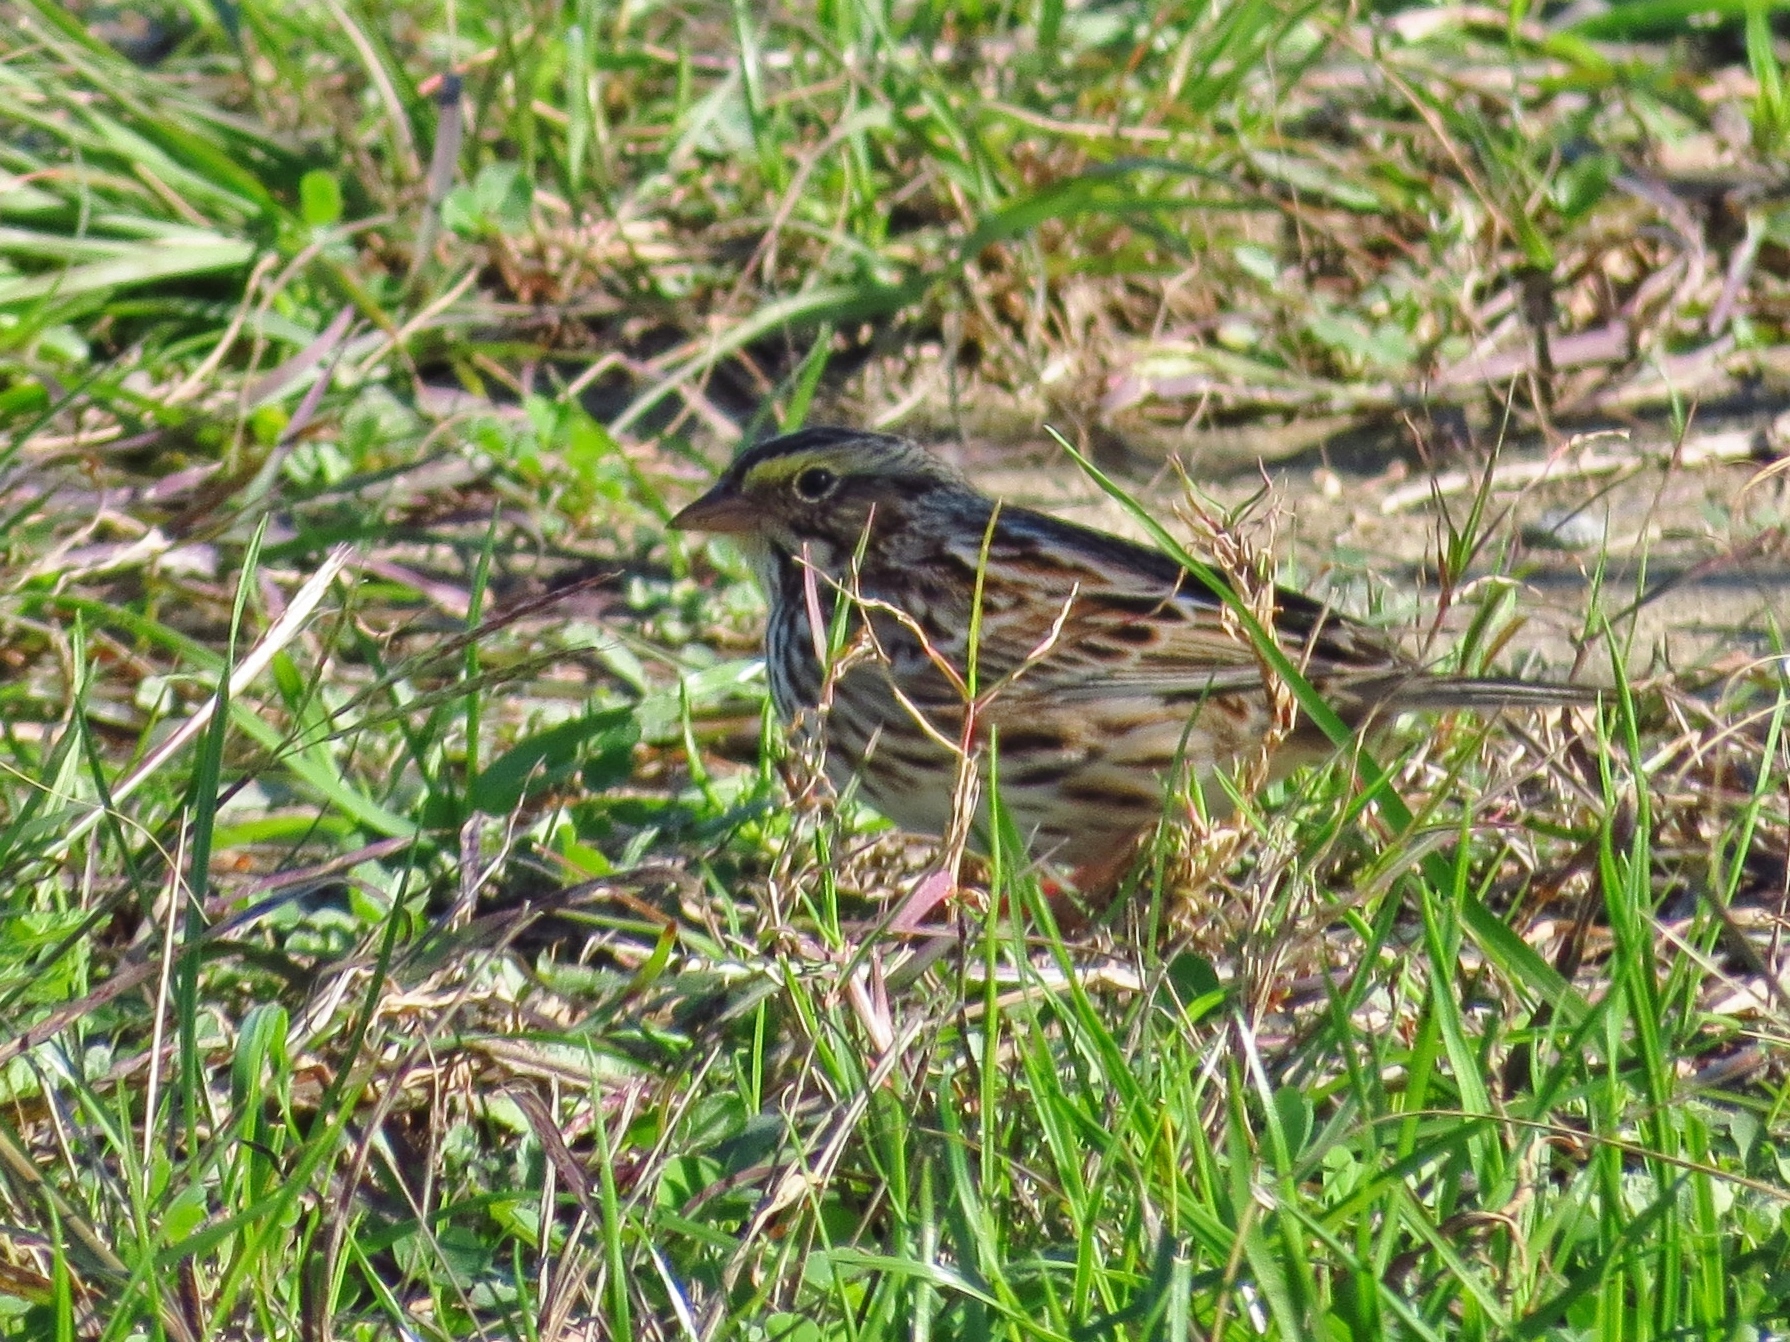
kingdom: Animalia
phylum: Chordata
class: Aves
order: Passeriformes
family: Passerellidae
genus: Passerculus
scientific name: Passerculus sandwichensis
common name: Savannah sparrow
